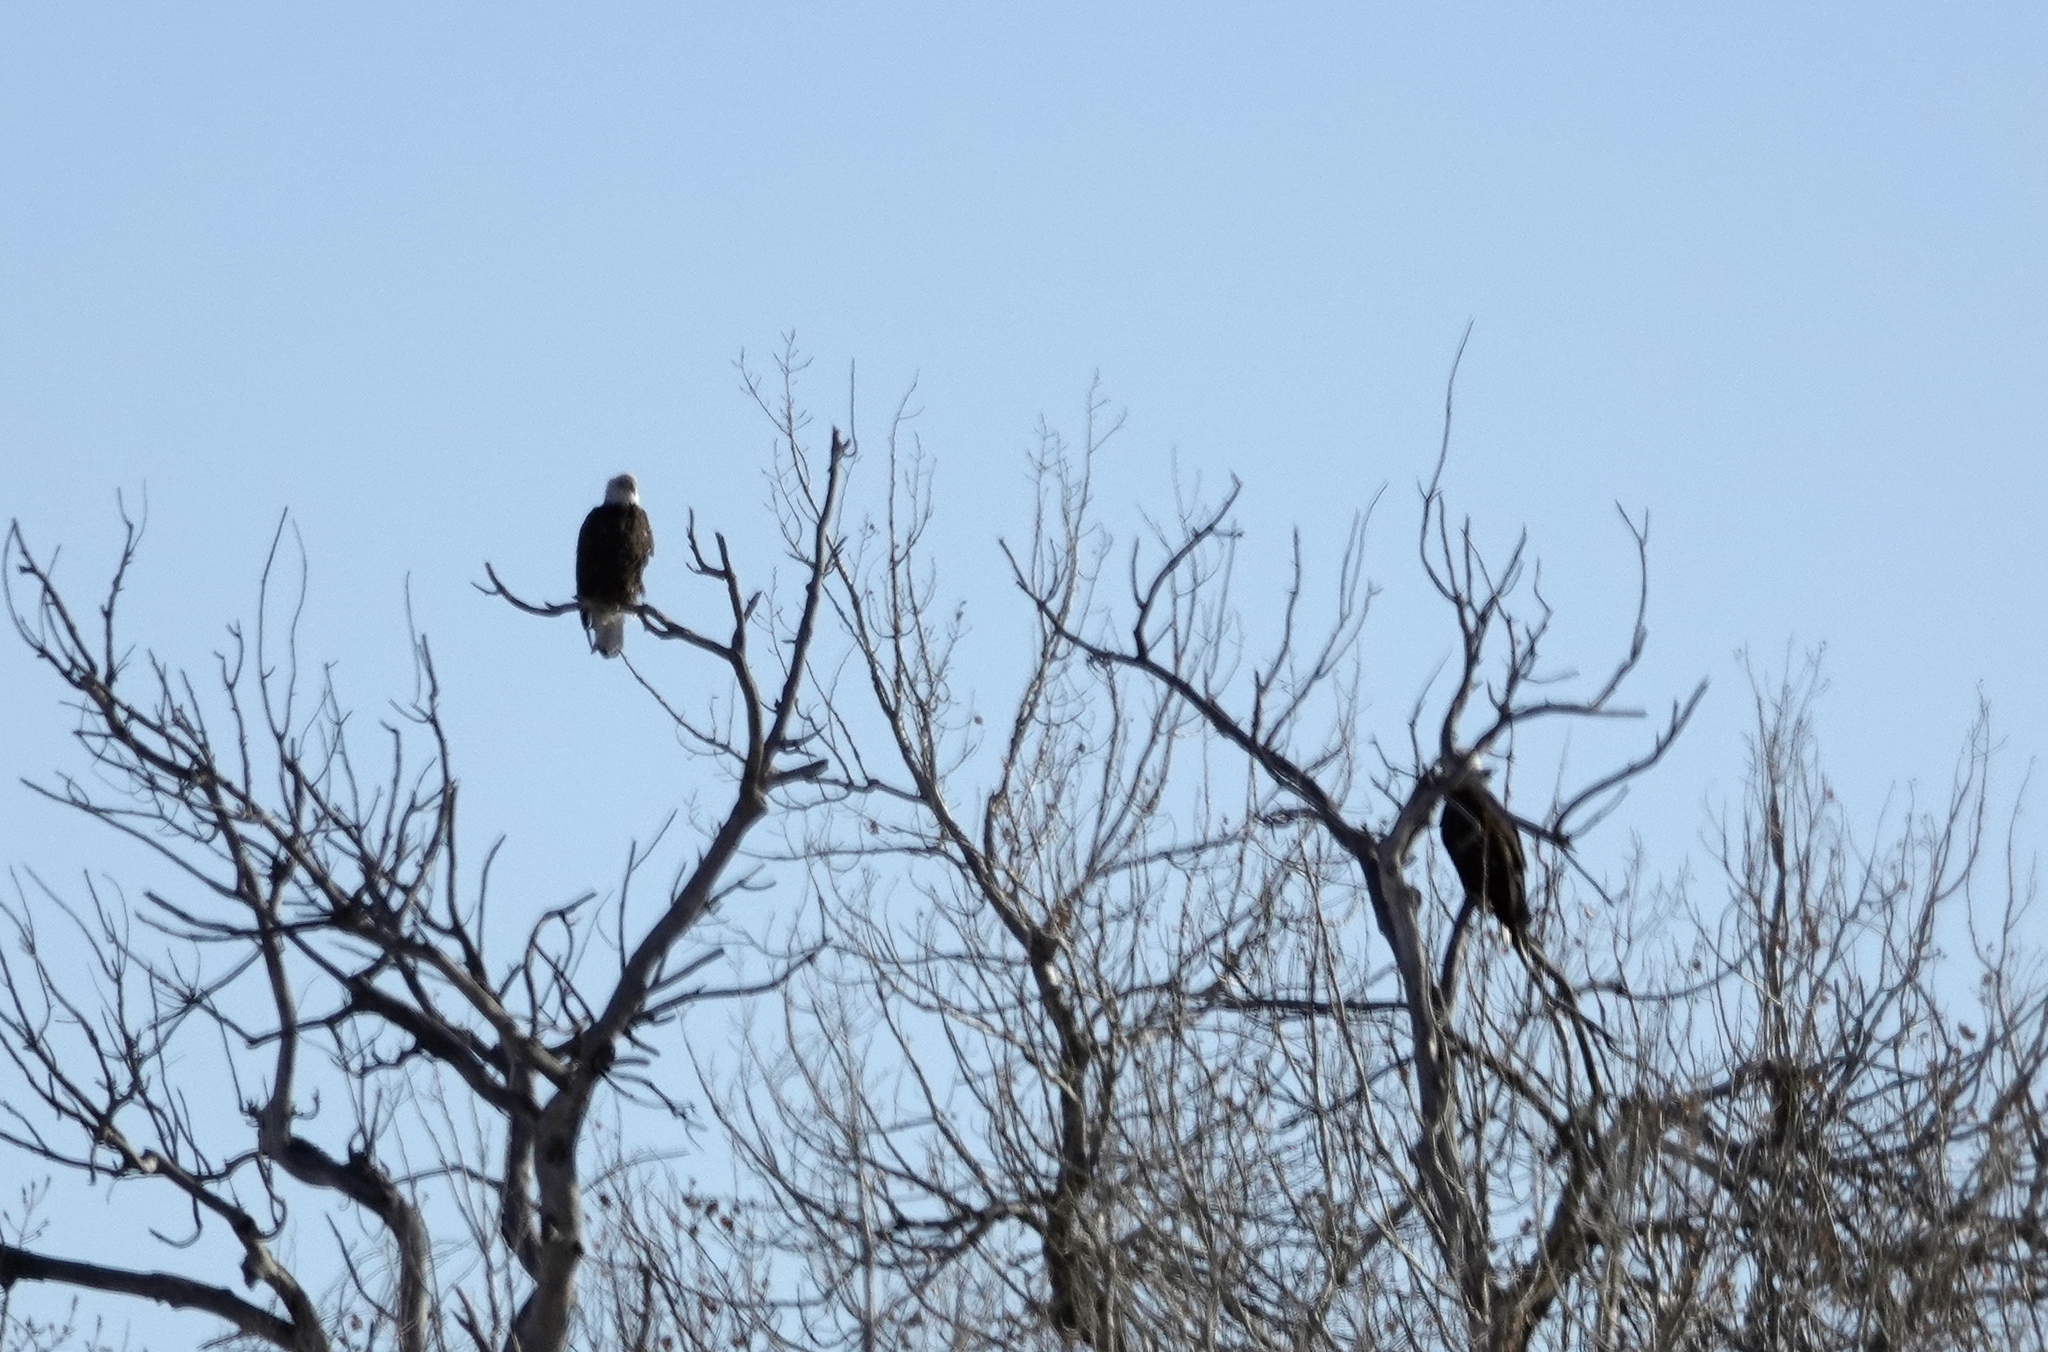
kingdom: Animalia
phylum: Chordata
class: Aves
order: Accipitriformes
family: Accipitridae
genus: Haliaeetus
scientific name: Haliaeetus leucocephalus
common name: Bald eagle
